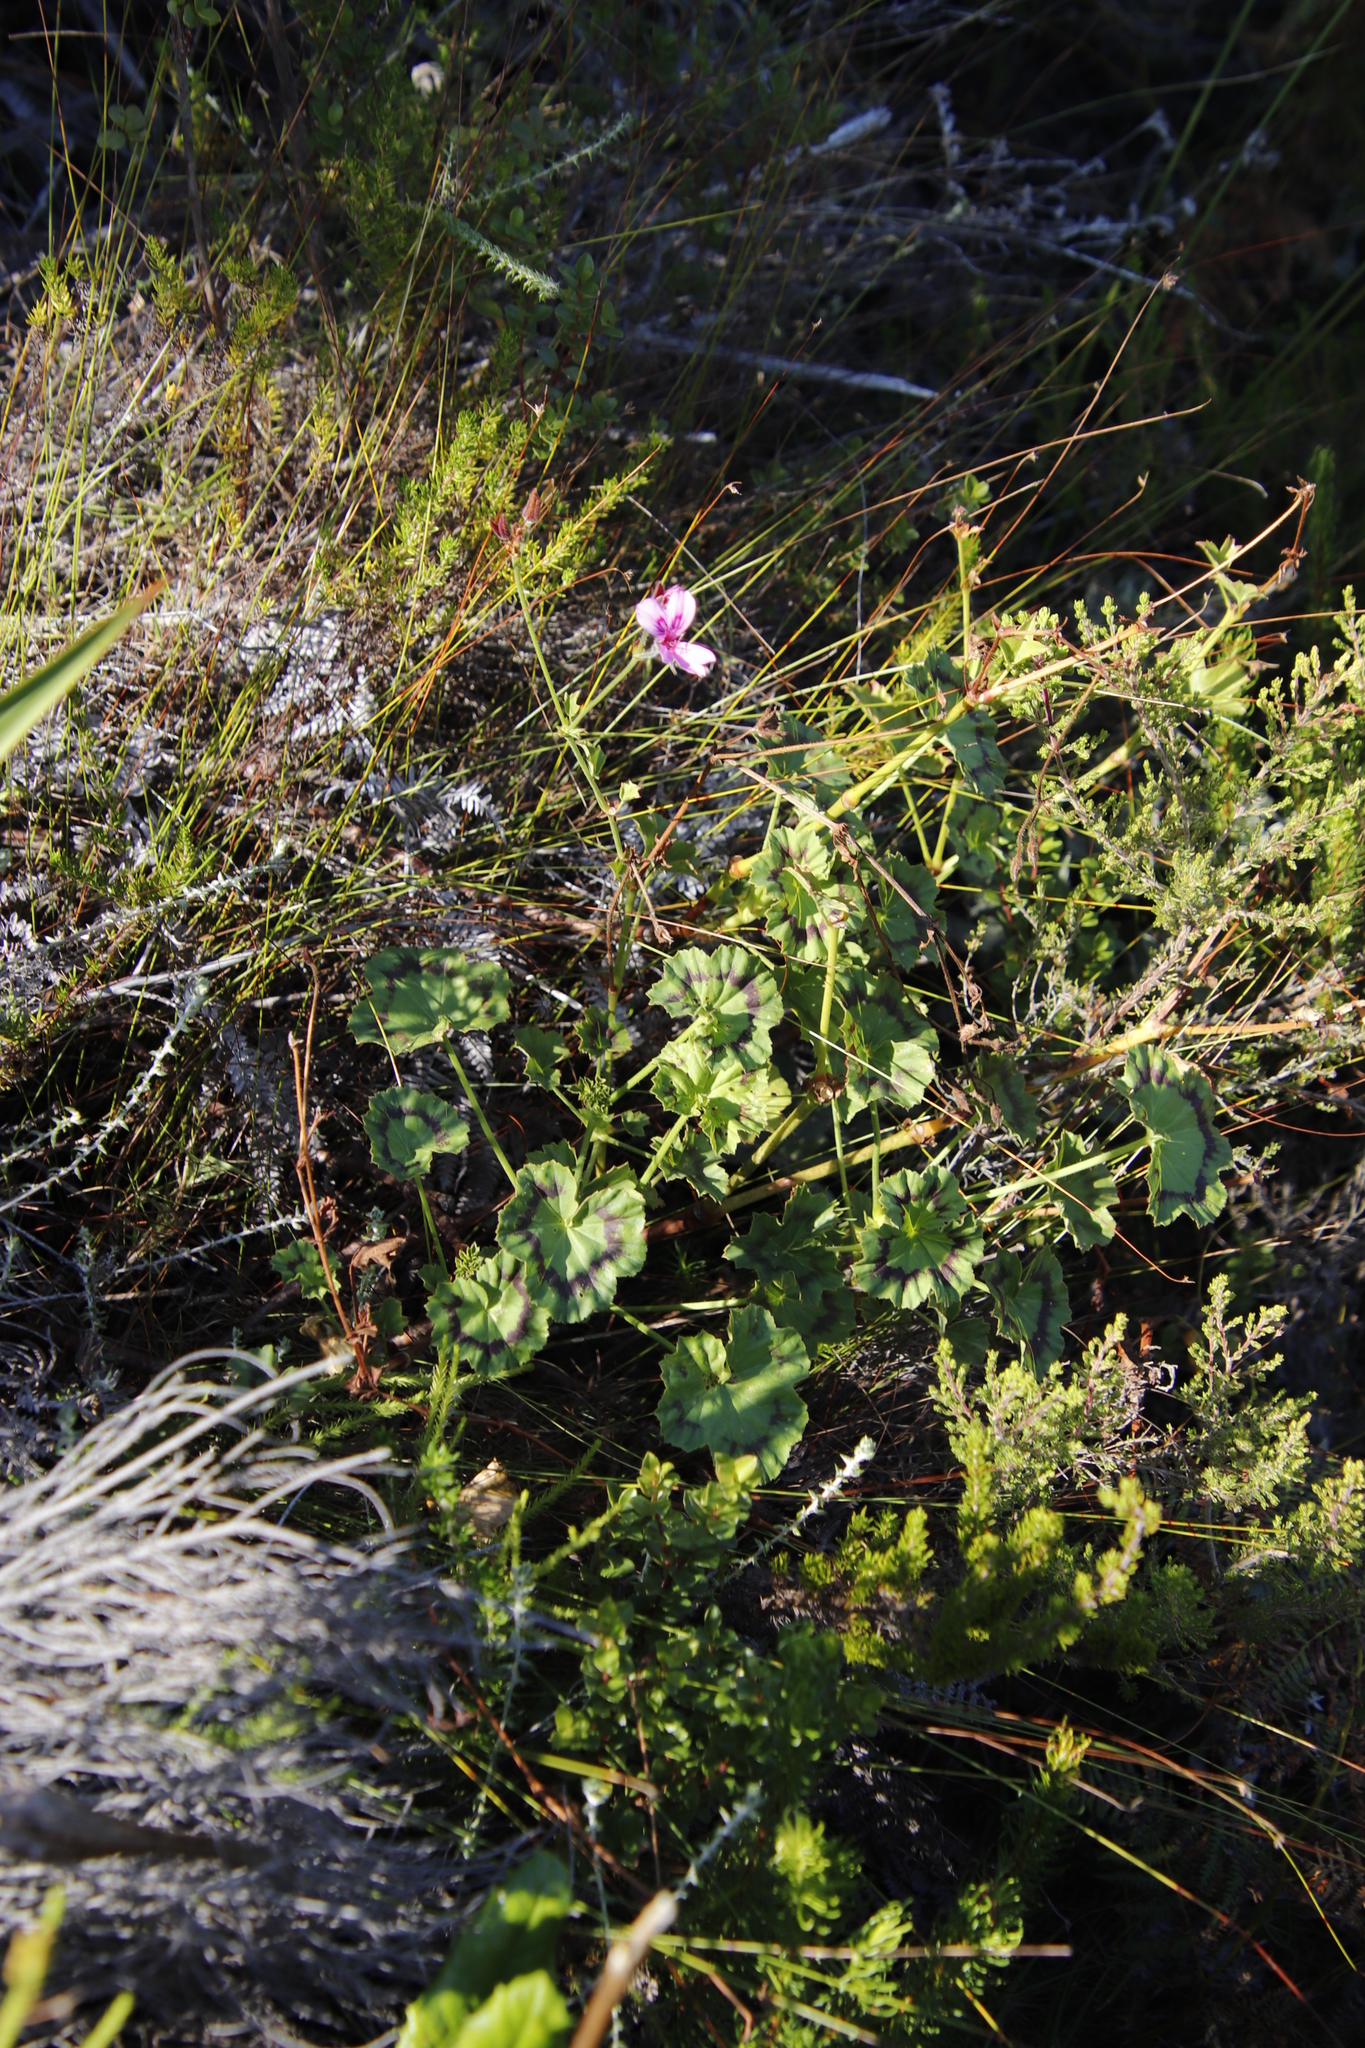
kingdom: Plantae
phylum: Tracheophyta
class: Magnoliopsida
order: Geraniales
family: Geraniaceae
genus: Pelargonium
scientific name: Pelargonium tabulare
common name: Table mountain pelargonium
